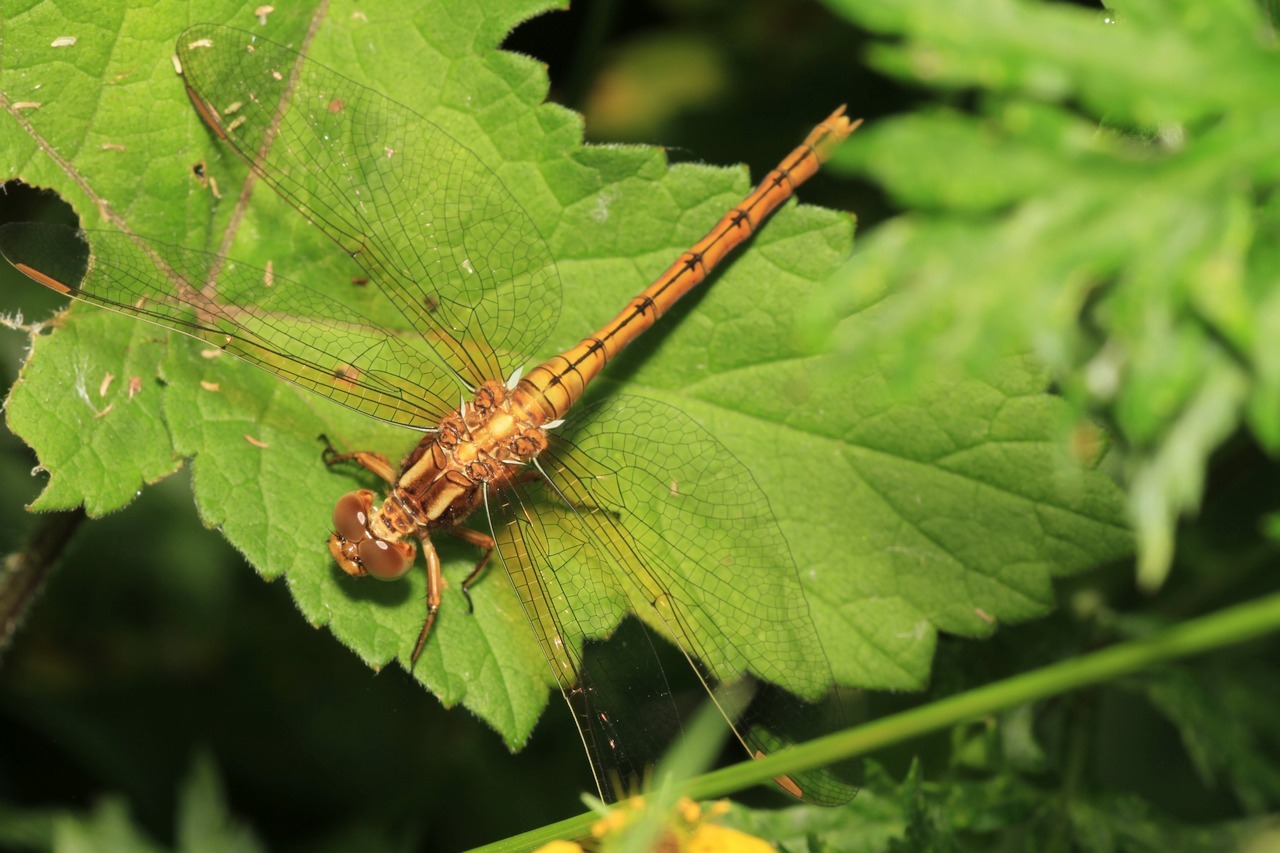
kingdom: Animalia
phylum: Arthropoda
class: Insecta
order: Odonata
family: Libellulidae
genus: Orthetrum
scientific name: Orthetrum coerulescens
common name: Keeled skimmer
